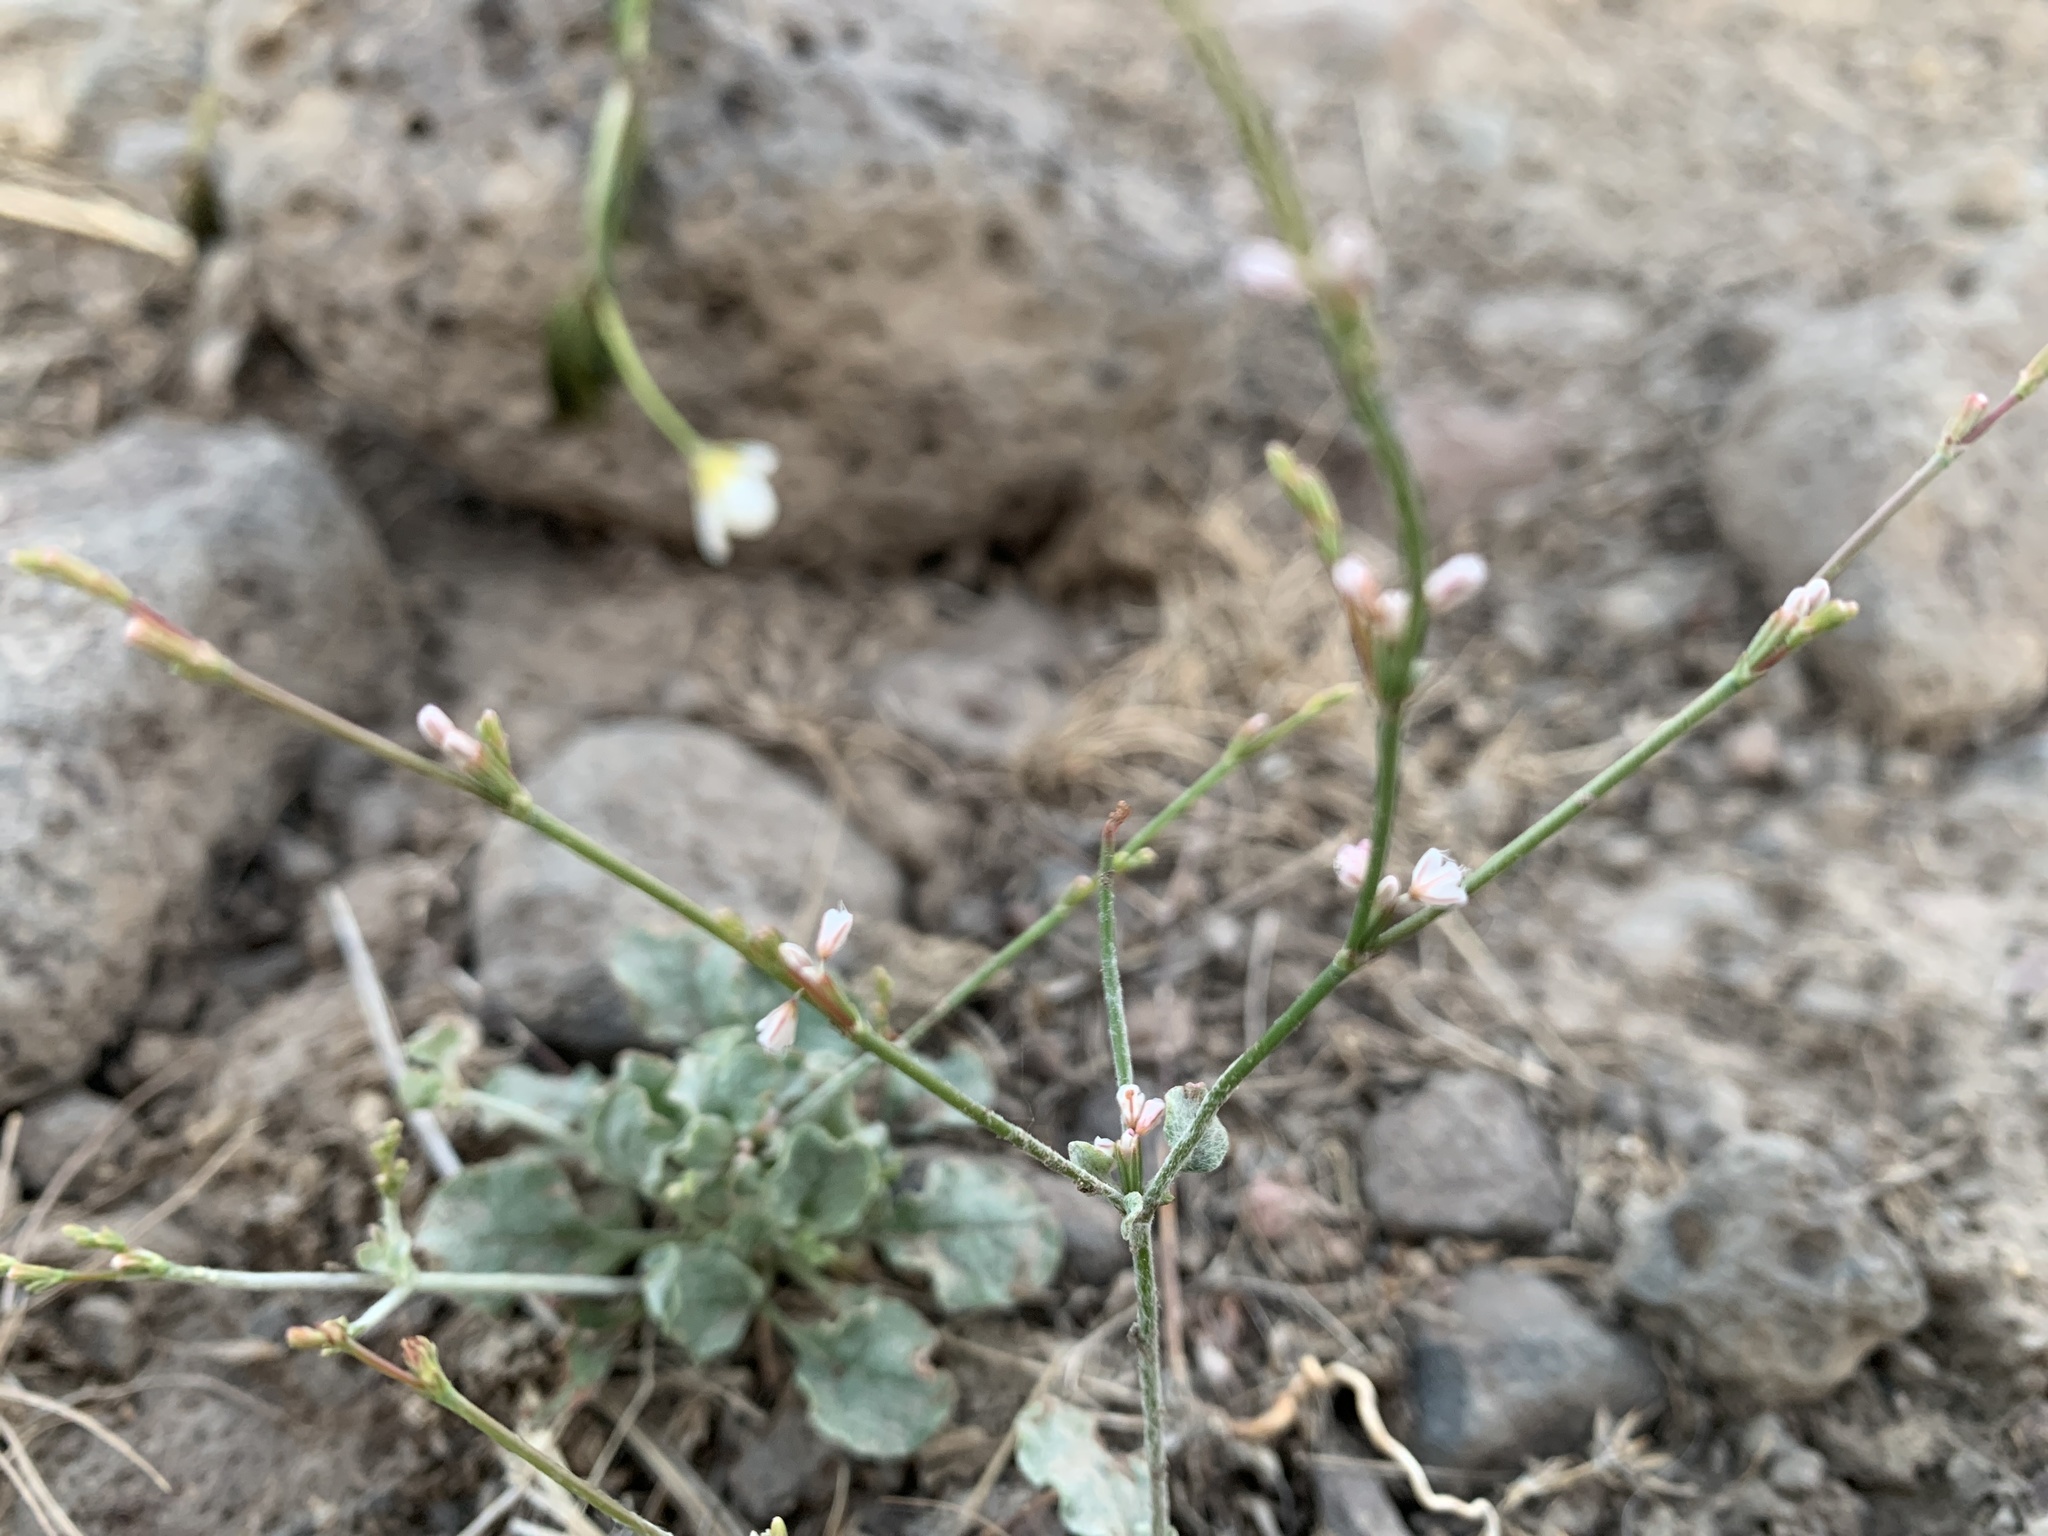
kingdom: Plantae
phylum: Tracheophyta
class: Magnoliopsida
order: Caryophyllales
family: Polygonaceae
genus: Eriogonum
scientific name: Eriogonum vimineum
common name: Wicker buckwheat
